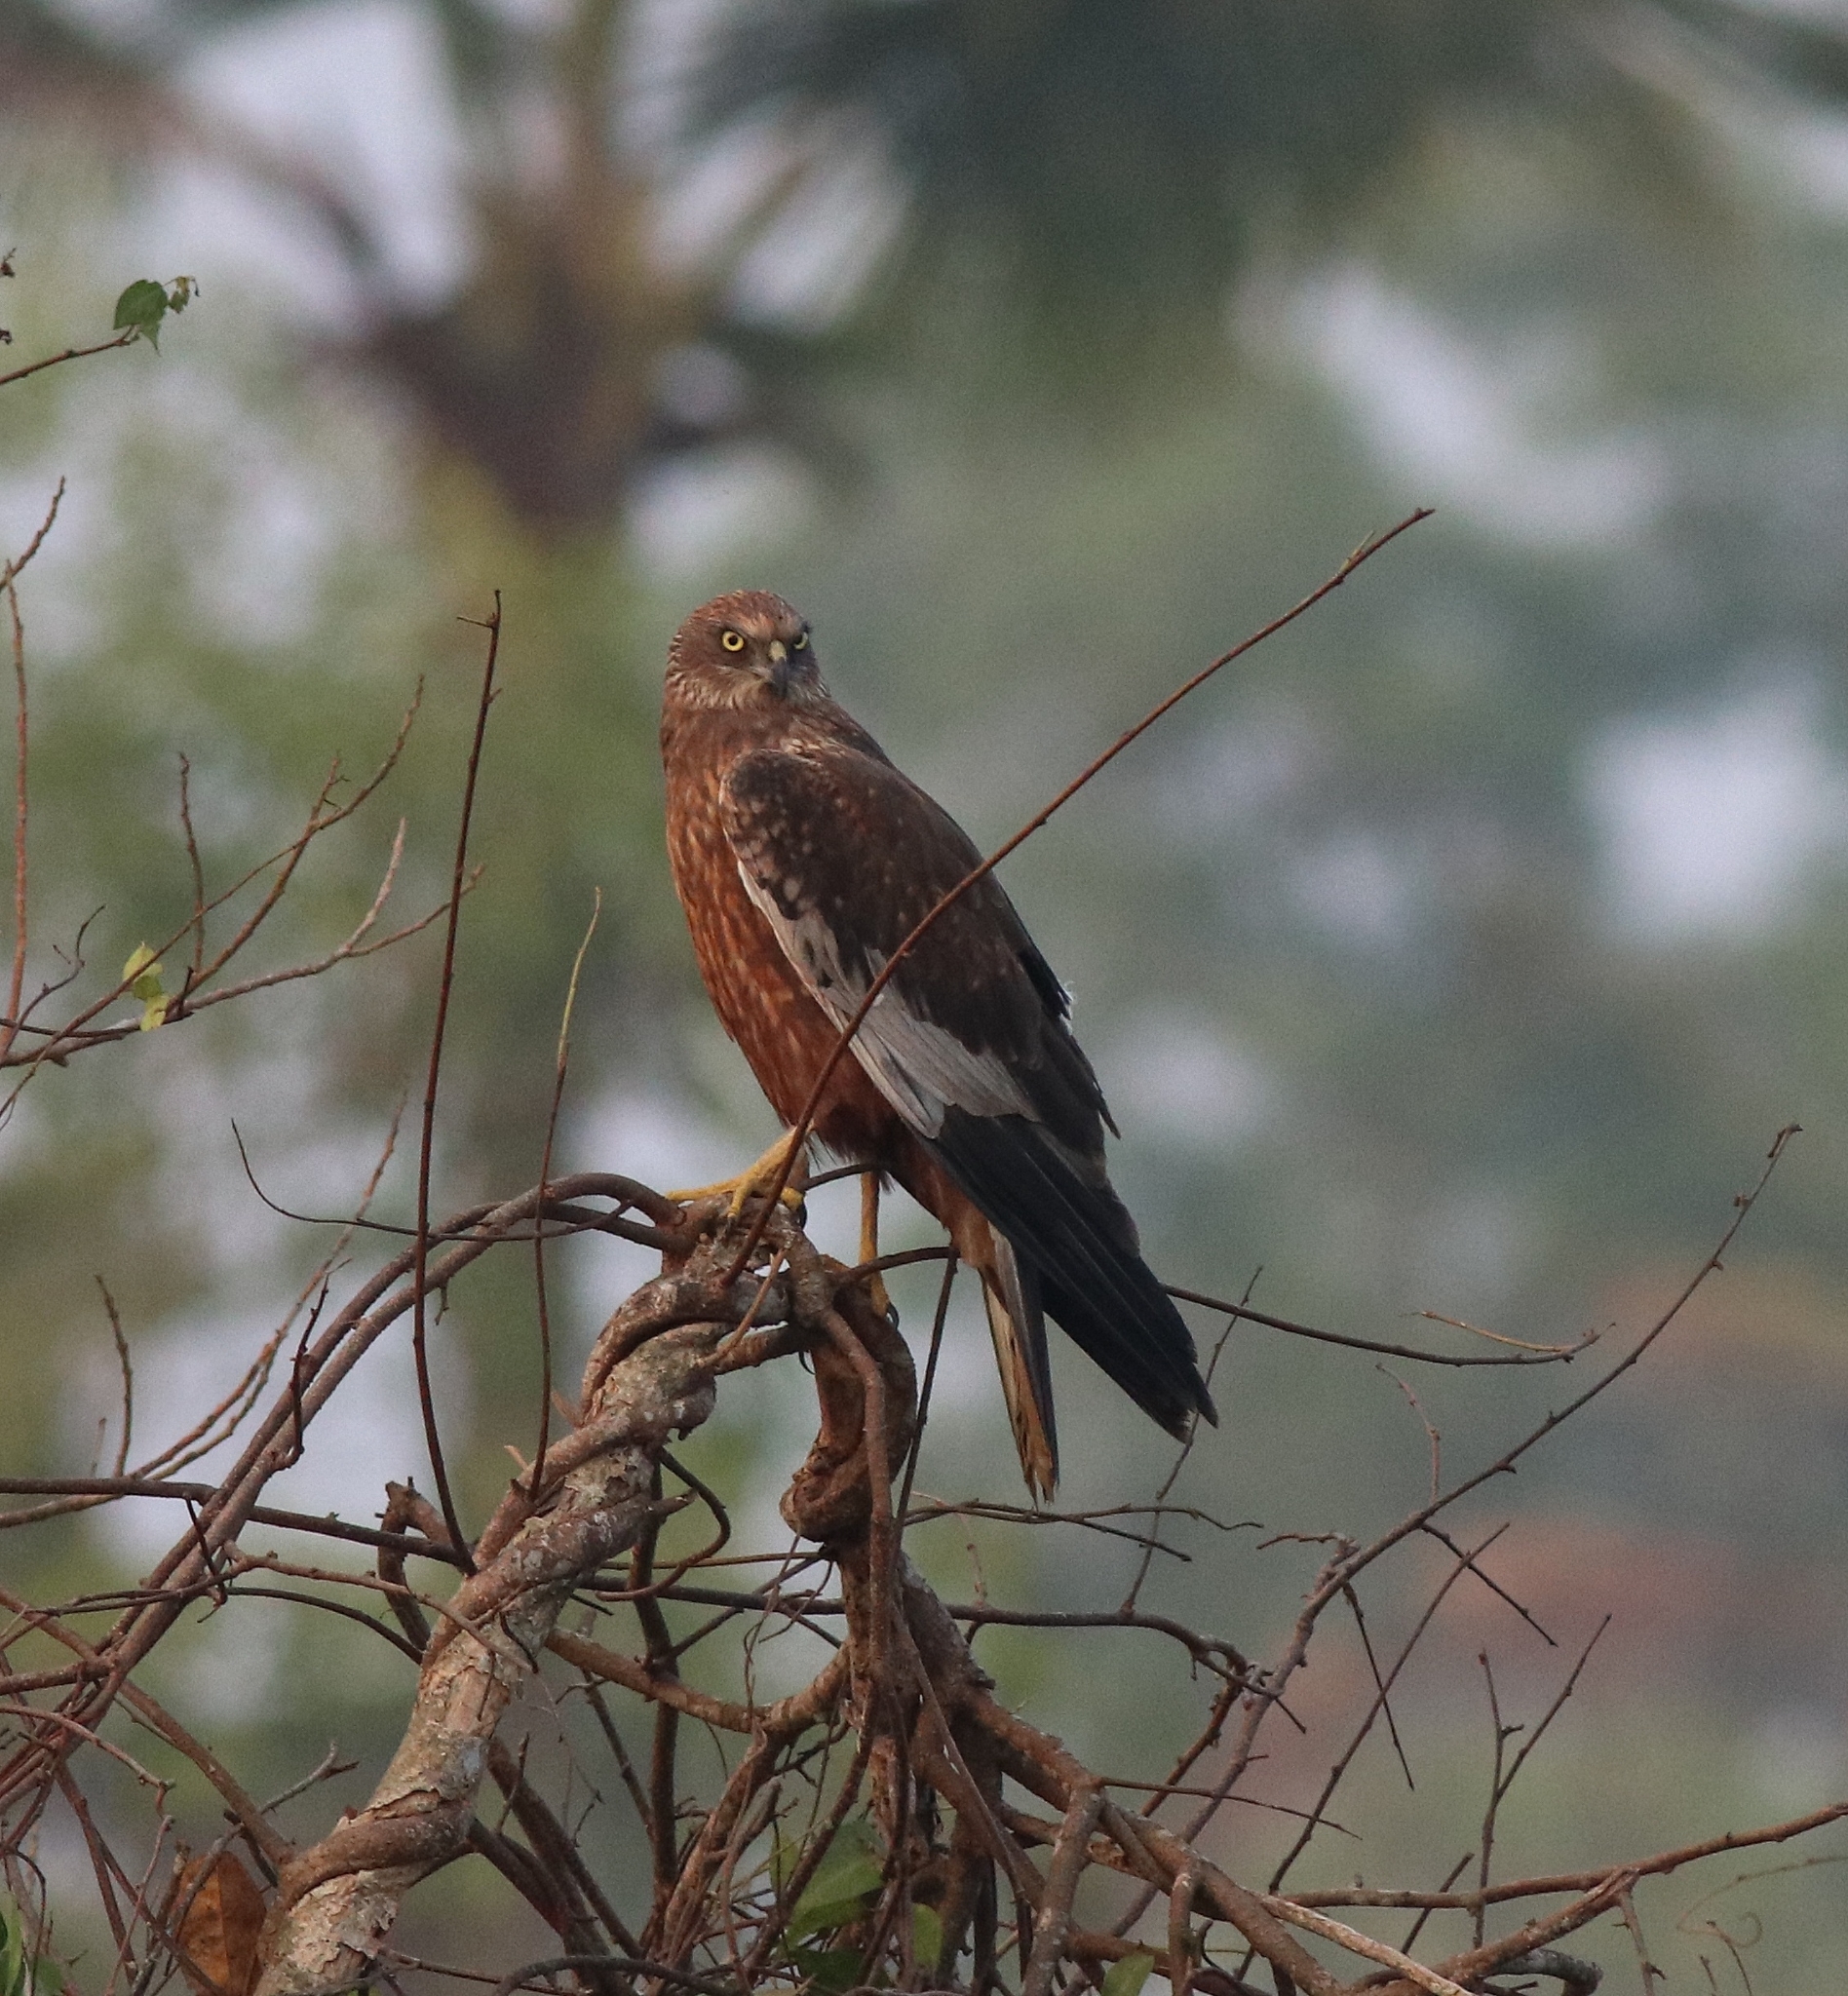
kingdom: Animalia
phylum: Chordata
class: Aves
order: Accipitriformes
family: Accipitridae
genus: Circus
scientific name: Circus aeruginosus
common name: Western marsh harrier
